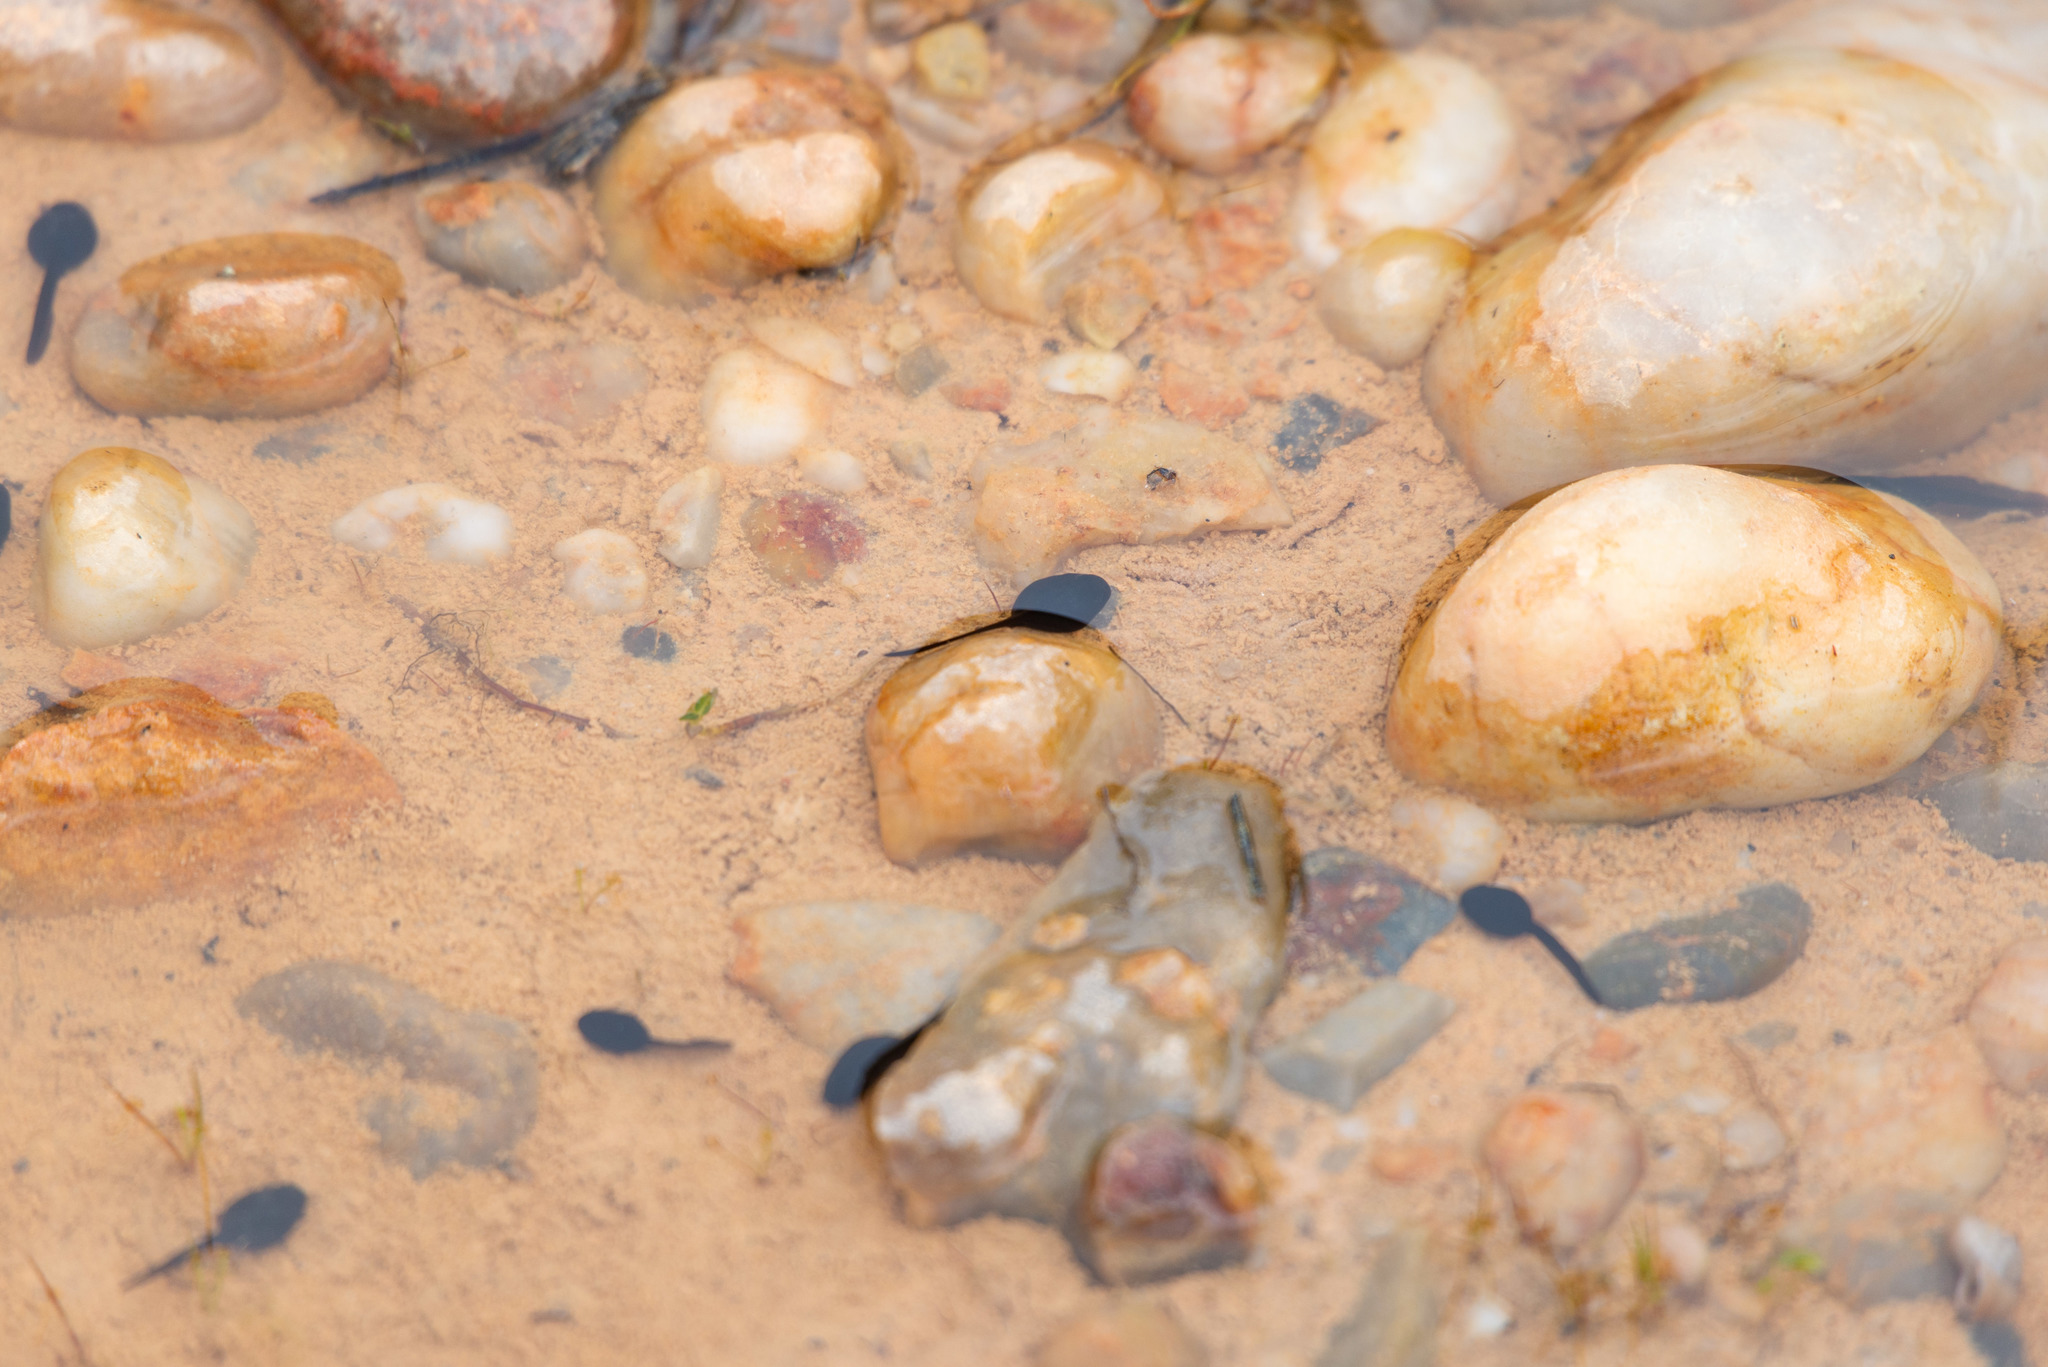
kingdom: Animalia
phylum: Chordata
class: Amphibia
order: Anura
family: Bufonidae
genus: Epidalea
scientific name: Epidalea calamita
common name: Natterjack toad
